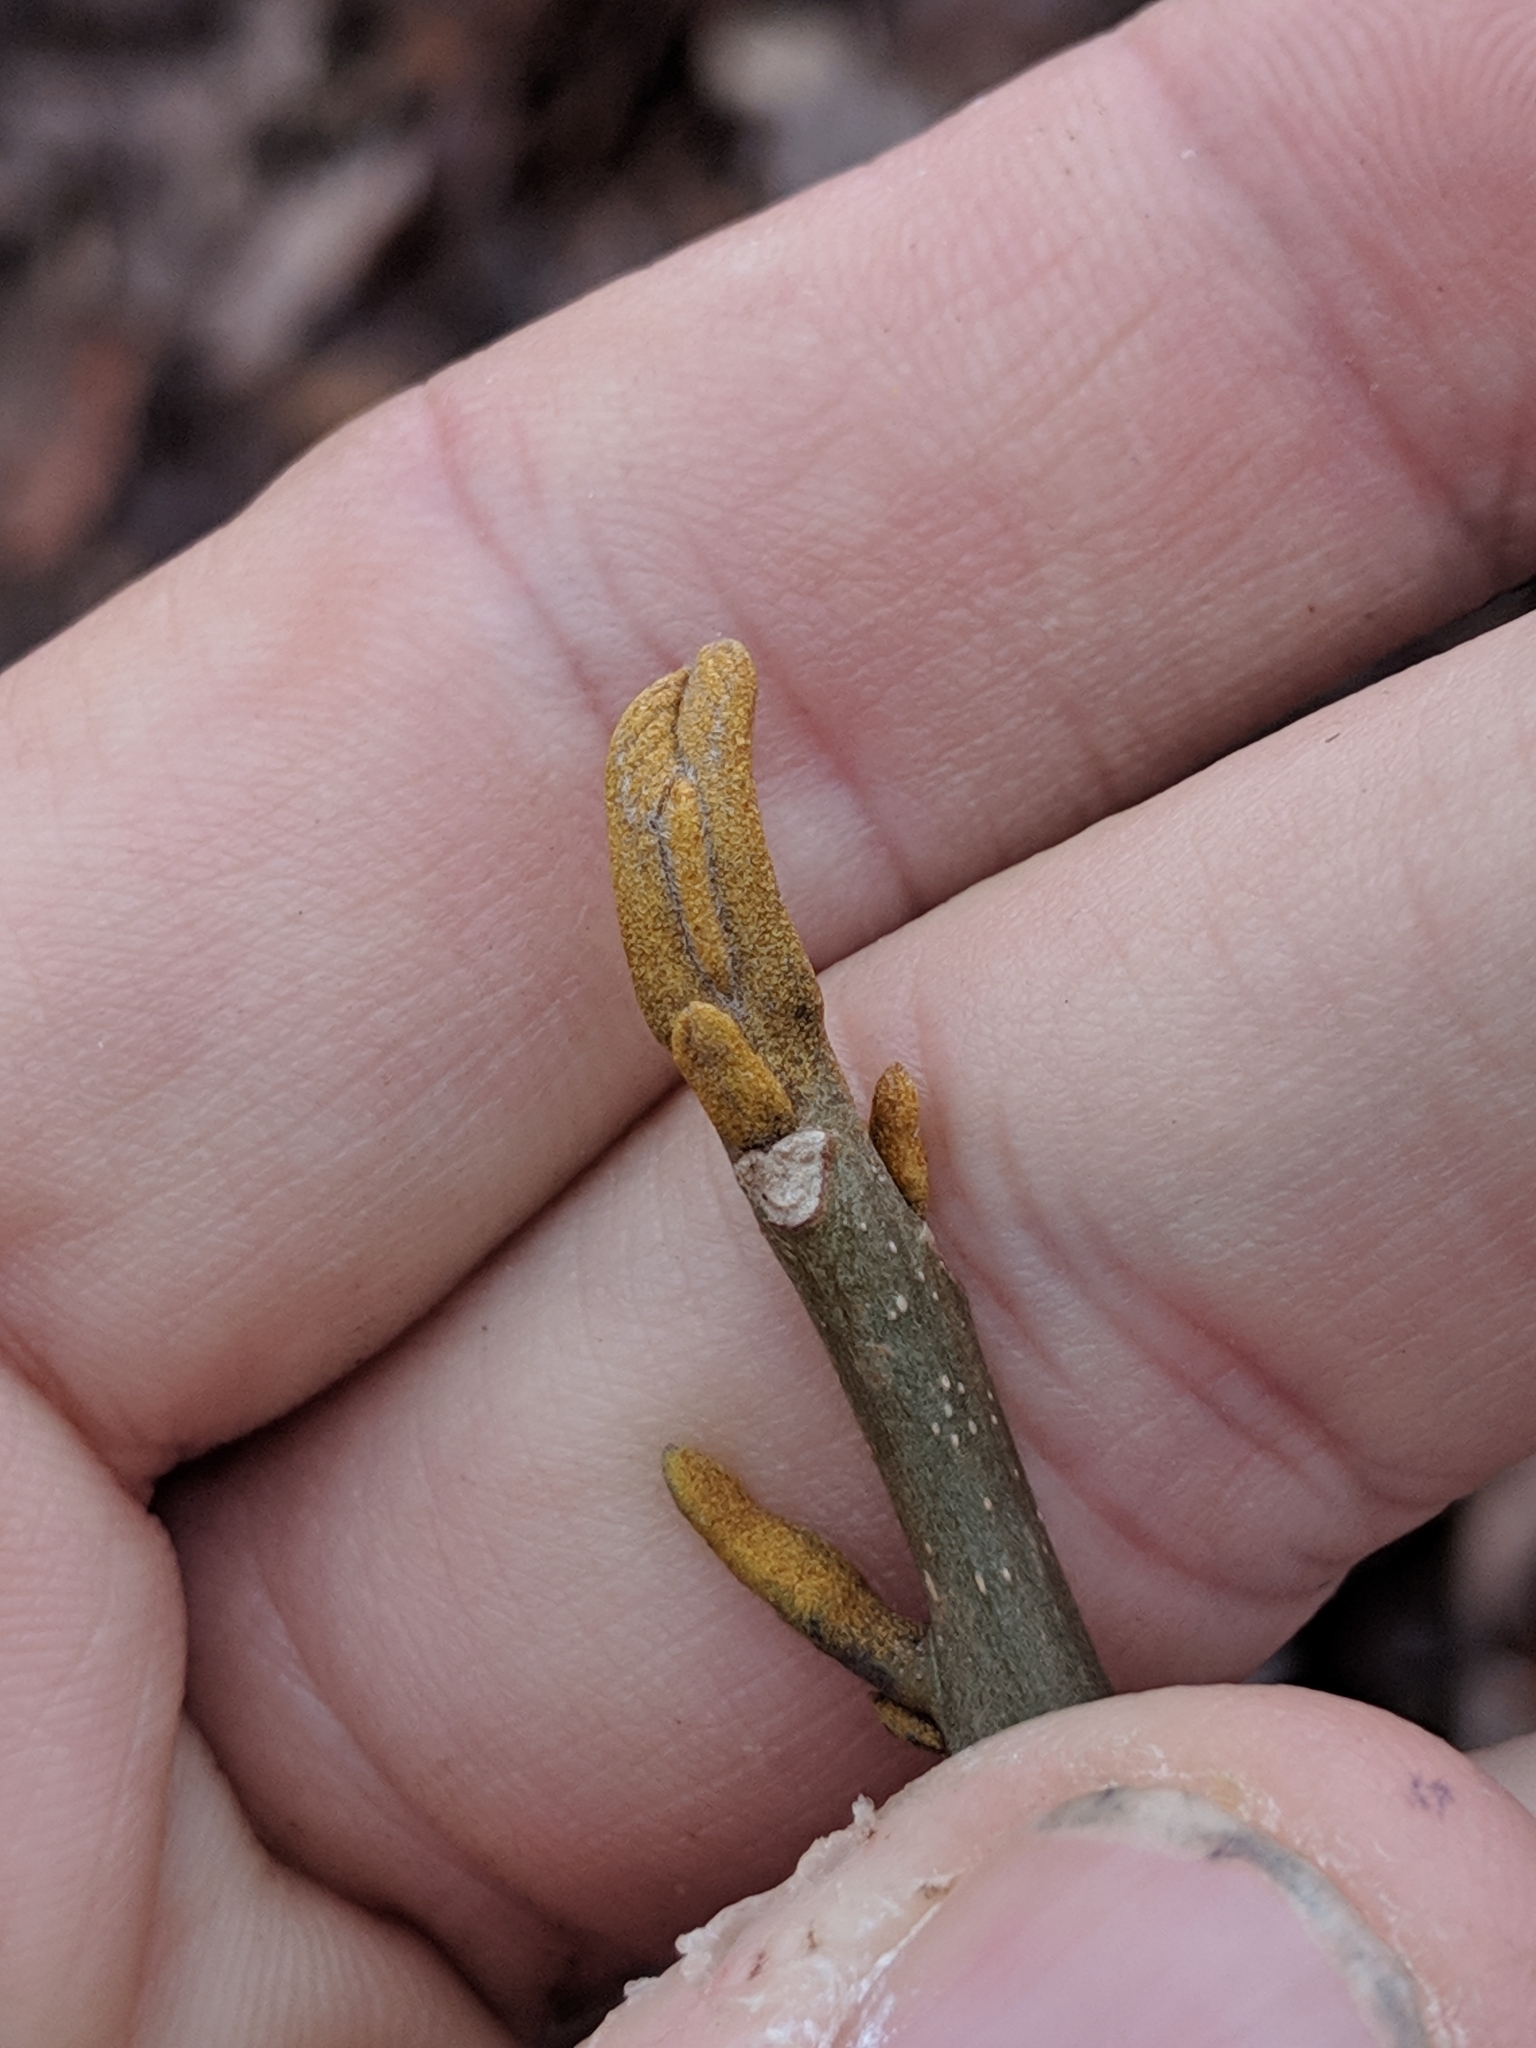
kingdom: Plantae
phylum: Tracheophyta
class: Magnoliopsida
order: Fagales
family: Juglandaceae
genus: Carya
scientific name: Carya cordiformis
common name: Bitternut hickory
